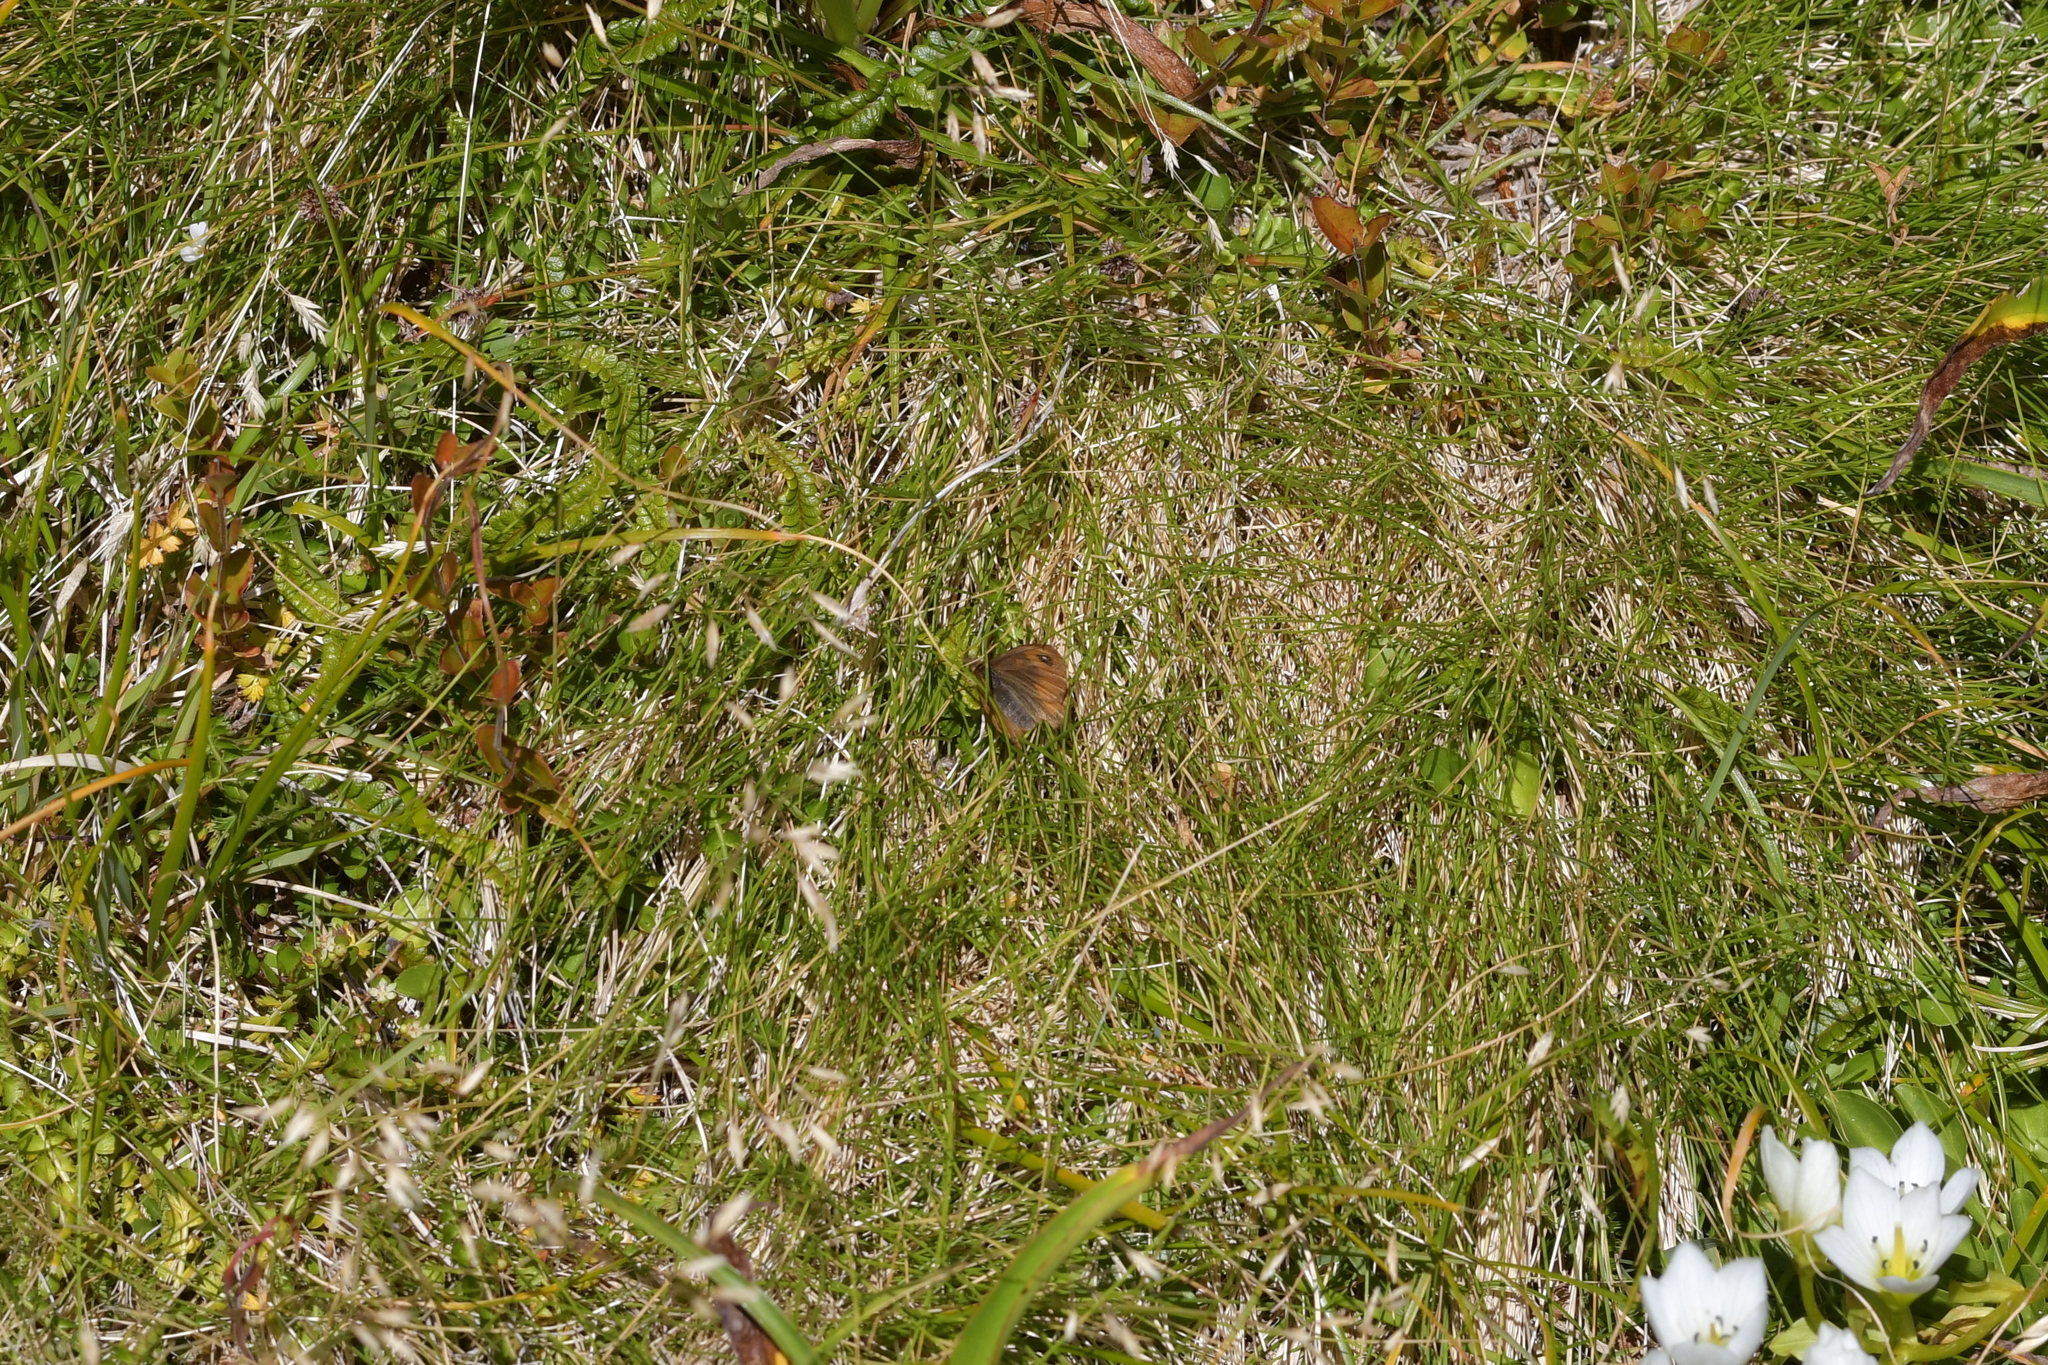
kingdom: Animalia
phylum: Arthropoda
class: Insecta
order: Lepidoptera
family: Nymphalidae
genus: Erebiola
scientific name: Erebiola butleri
